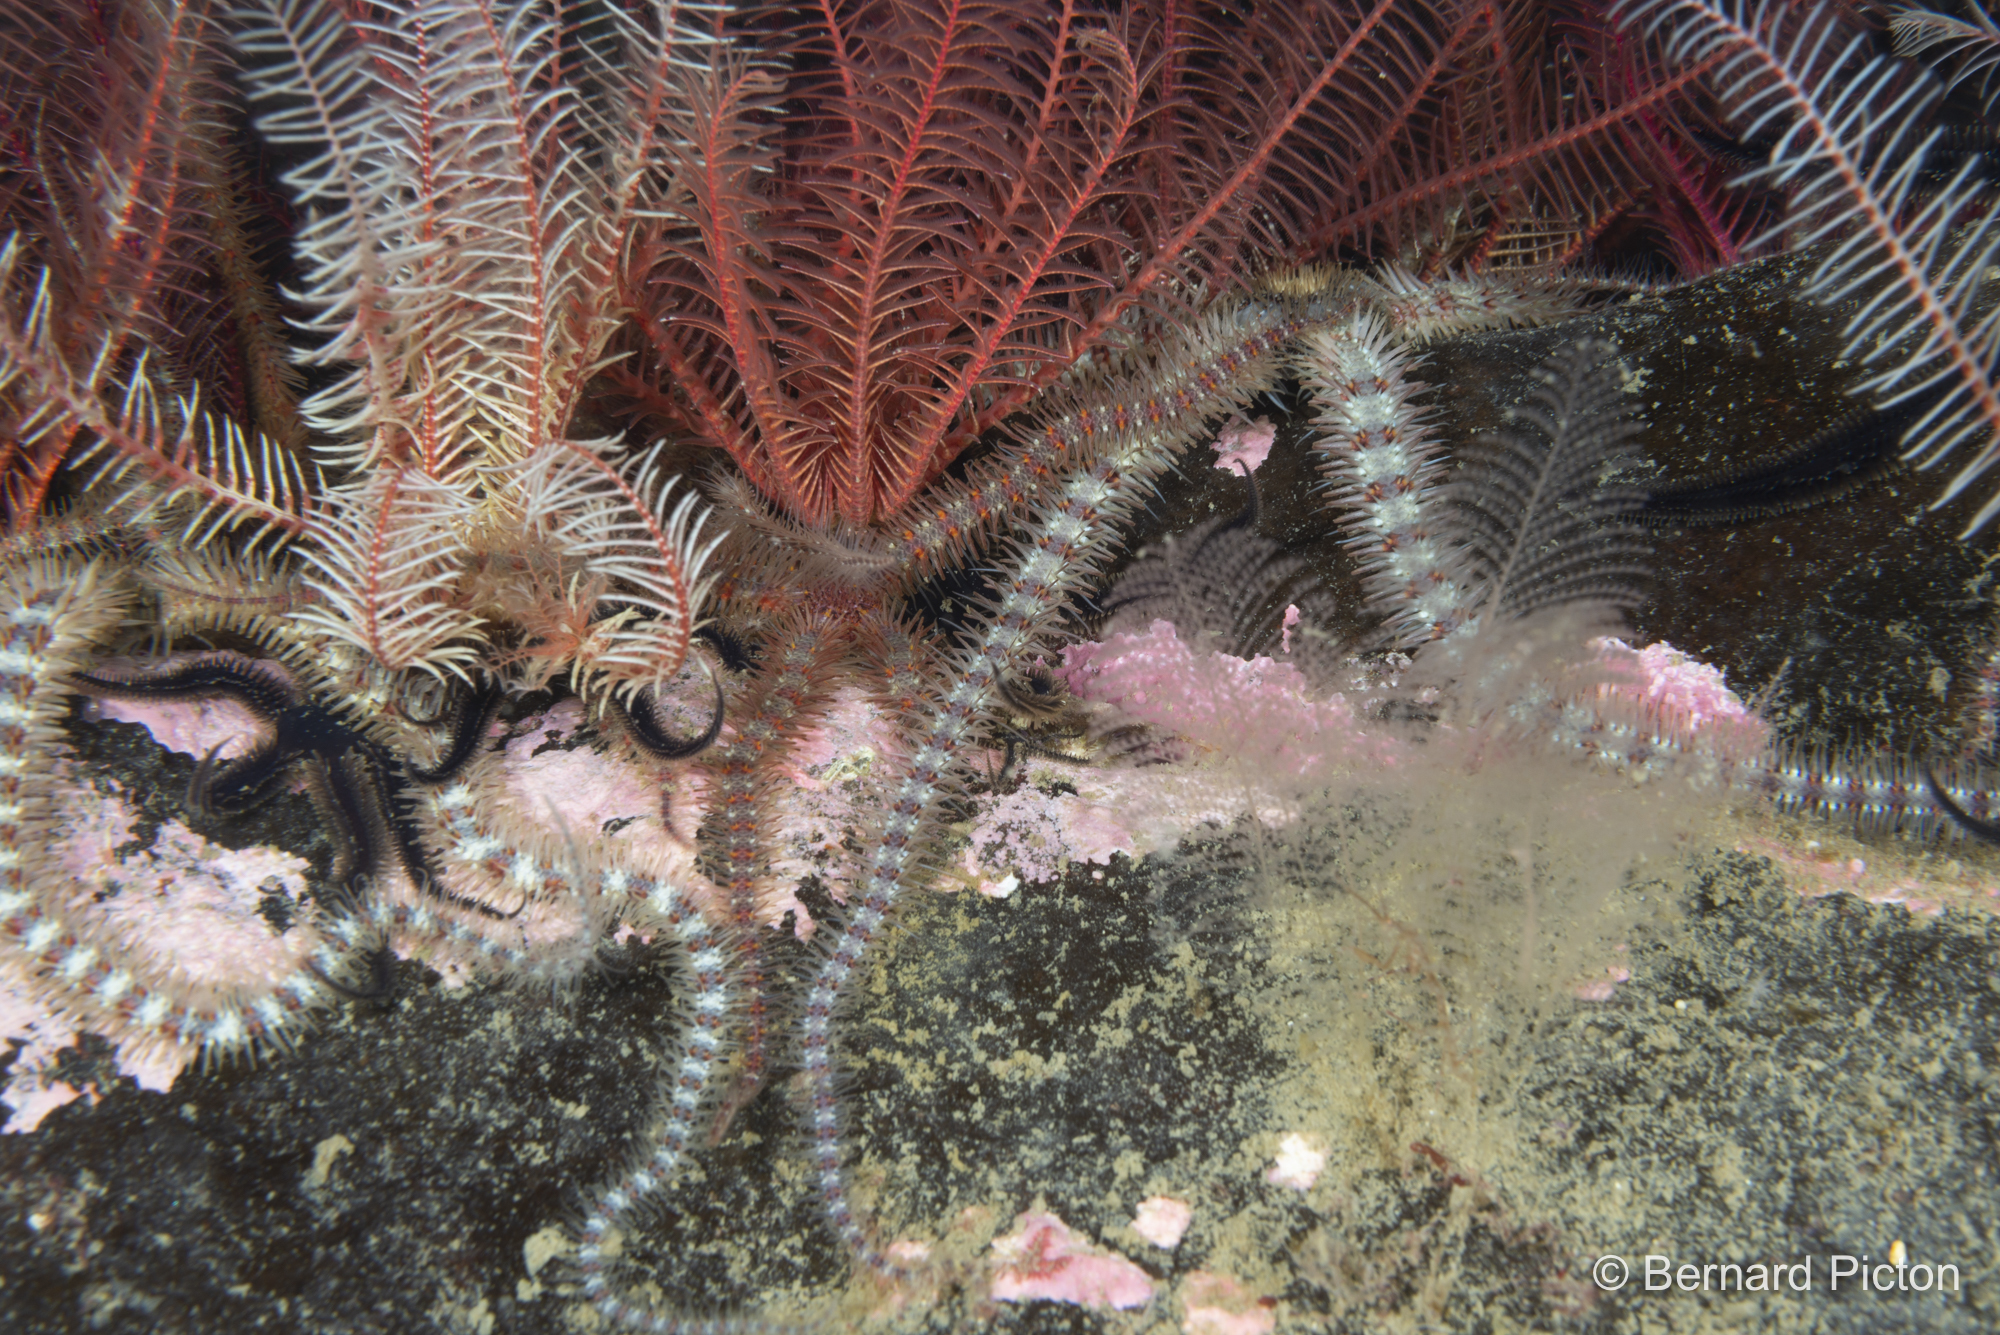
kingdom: Animalia
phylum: Echinodermata
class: Ophiuroidea
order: Amphilepidida
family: Ophiotrichidae
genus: Ophiothrix
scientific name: Ophiothrix fragilis
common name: Common brittlestar
